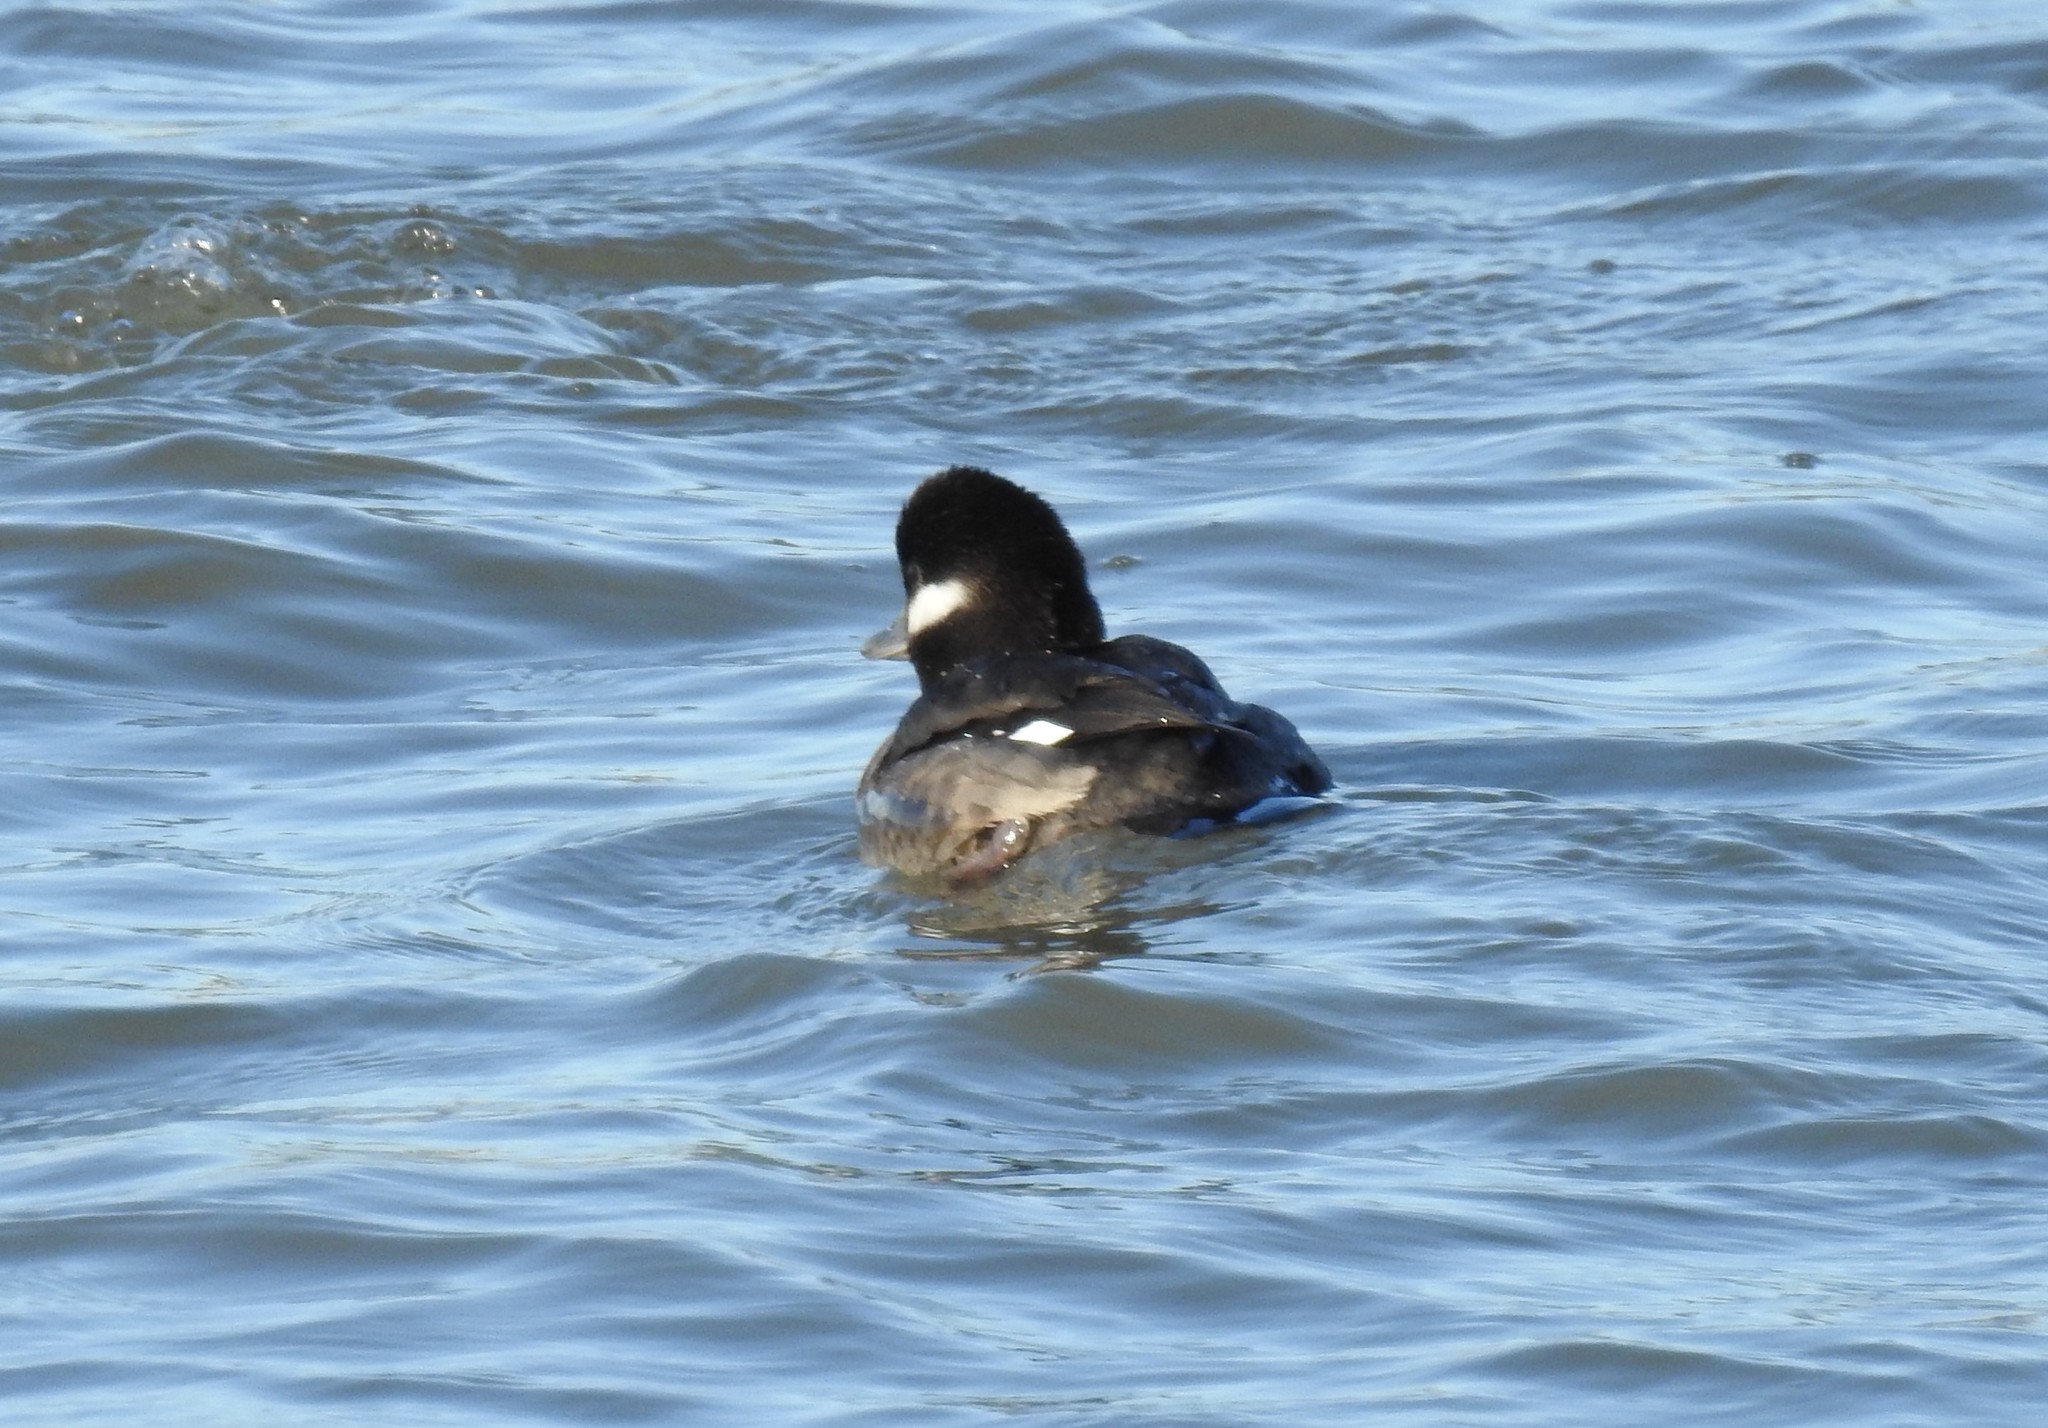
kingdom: Animalia
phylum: Chordata
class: Aves
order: Anseriformes
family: Anatidae
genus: Bucephala
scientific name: Bucephala albeola
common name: Bufflehead
